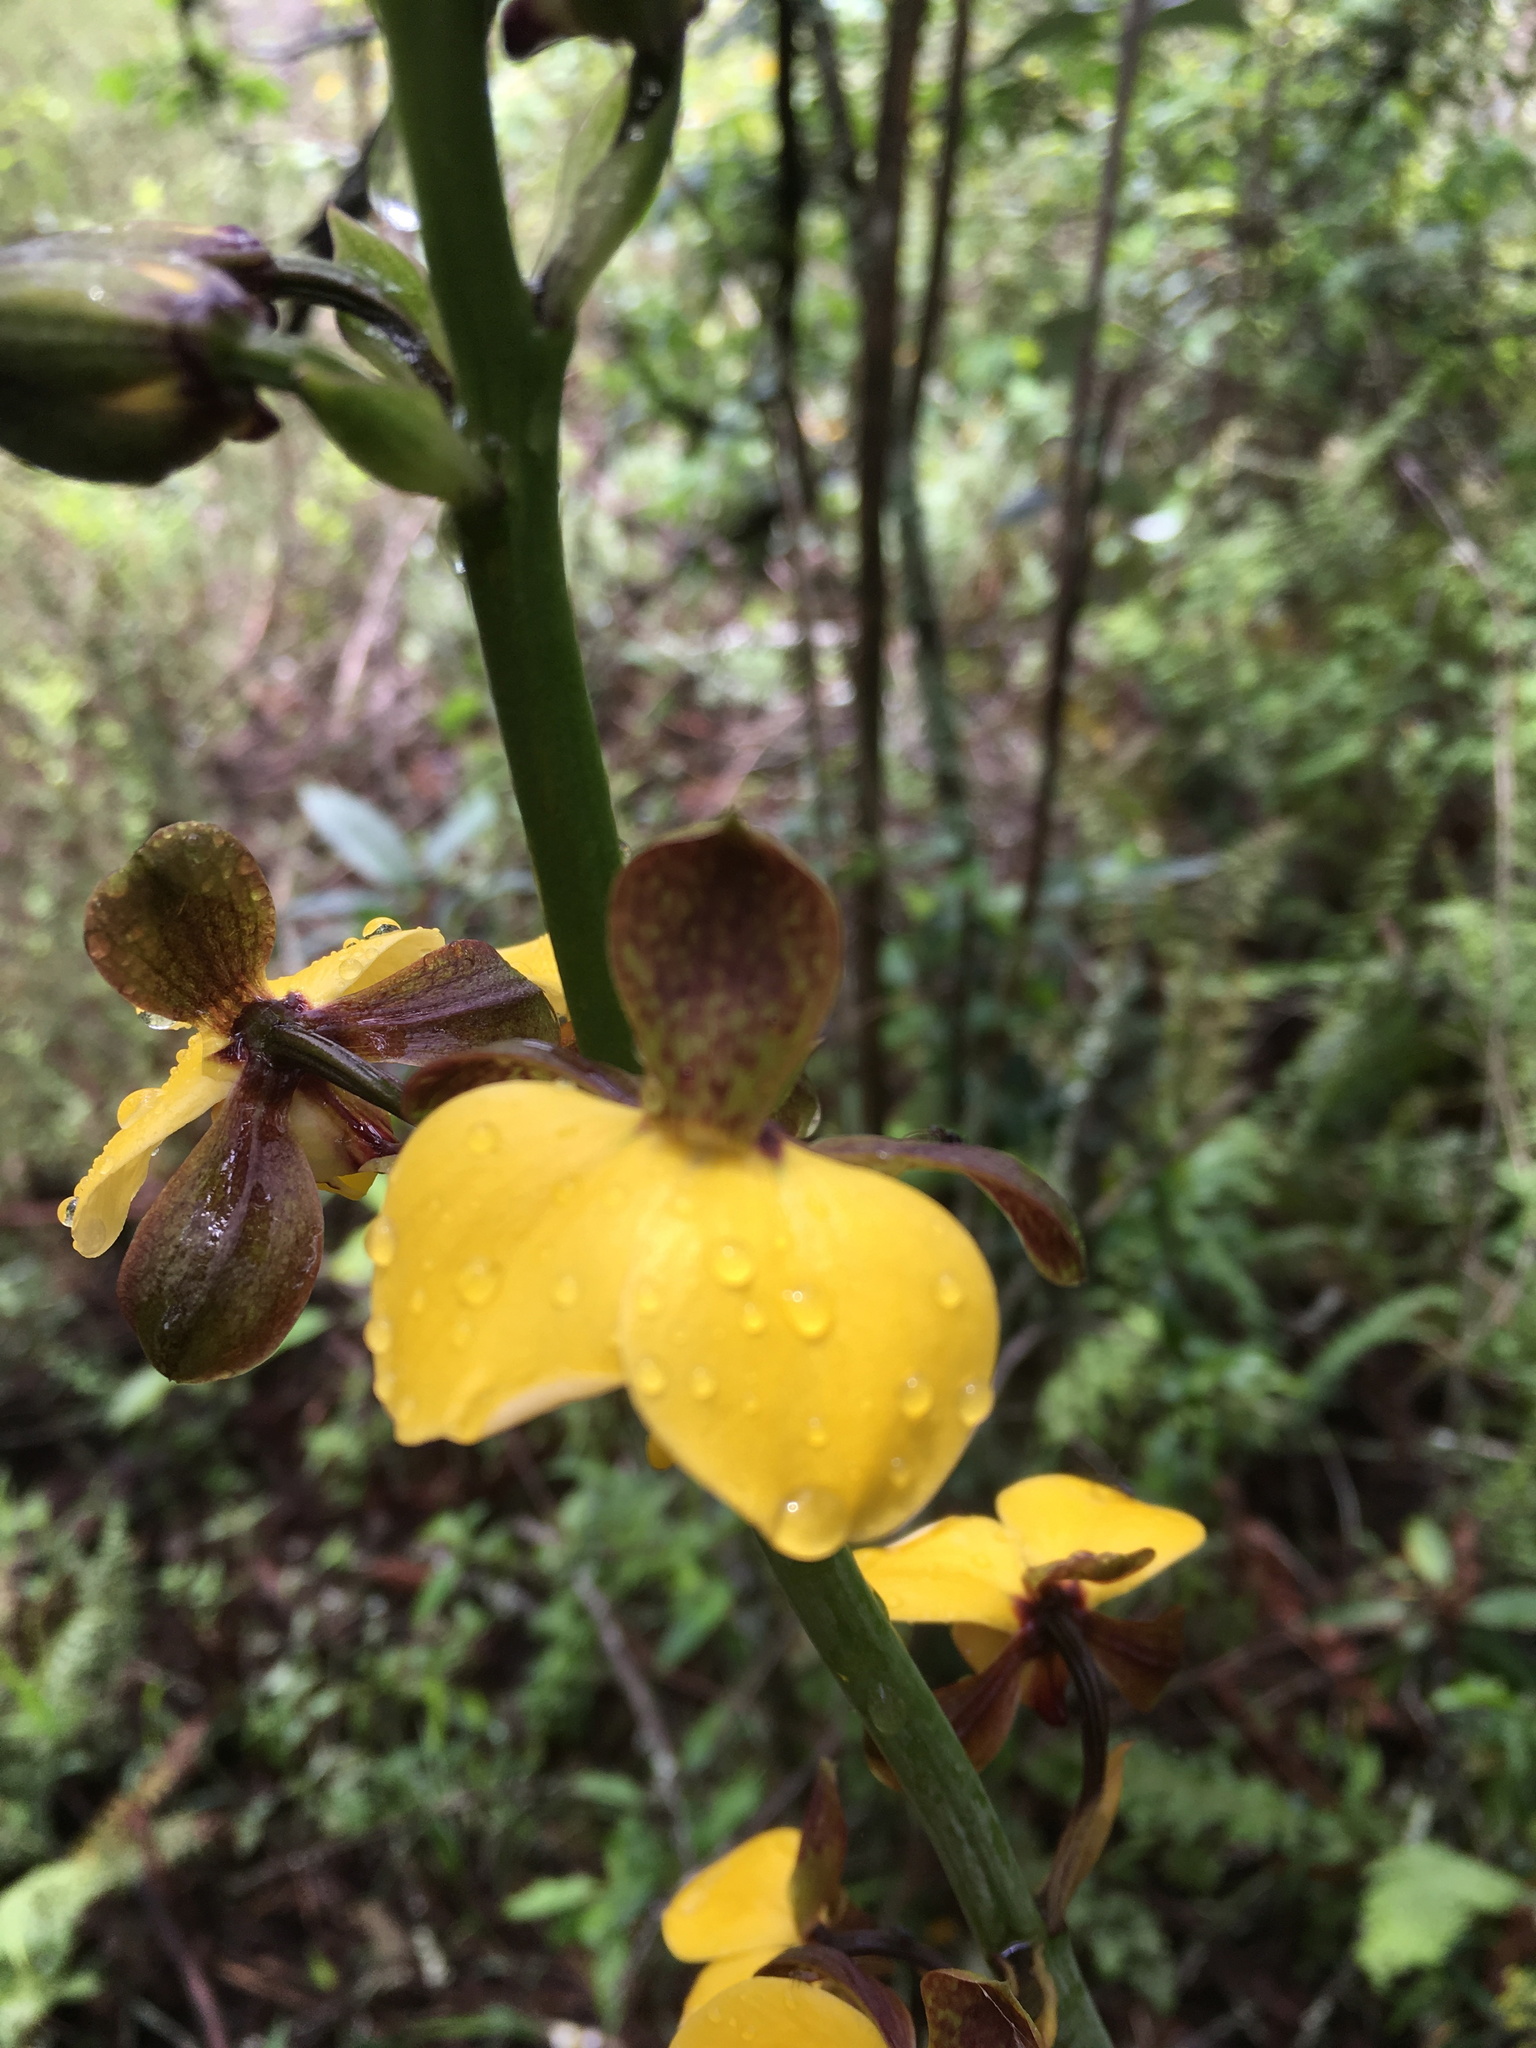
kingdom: Plantae
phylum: Tracheophyta
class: Liliopsida
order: Asparagales
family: Orchidaceae
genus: Eulophia
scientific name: Eulophia streptopetala
